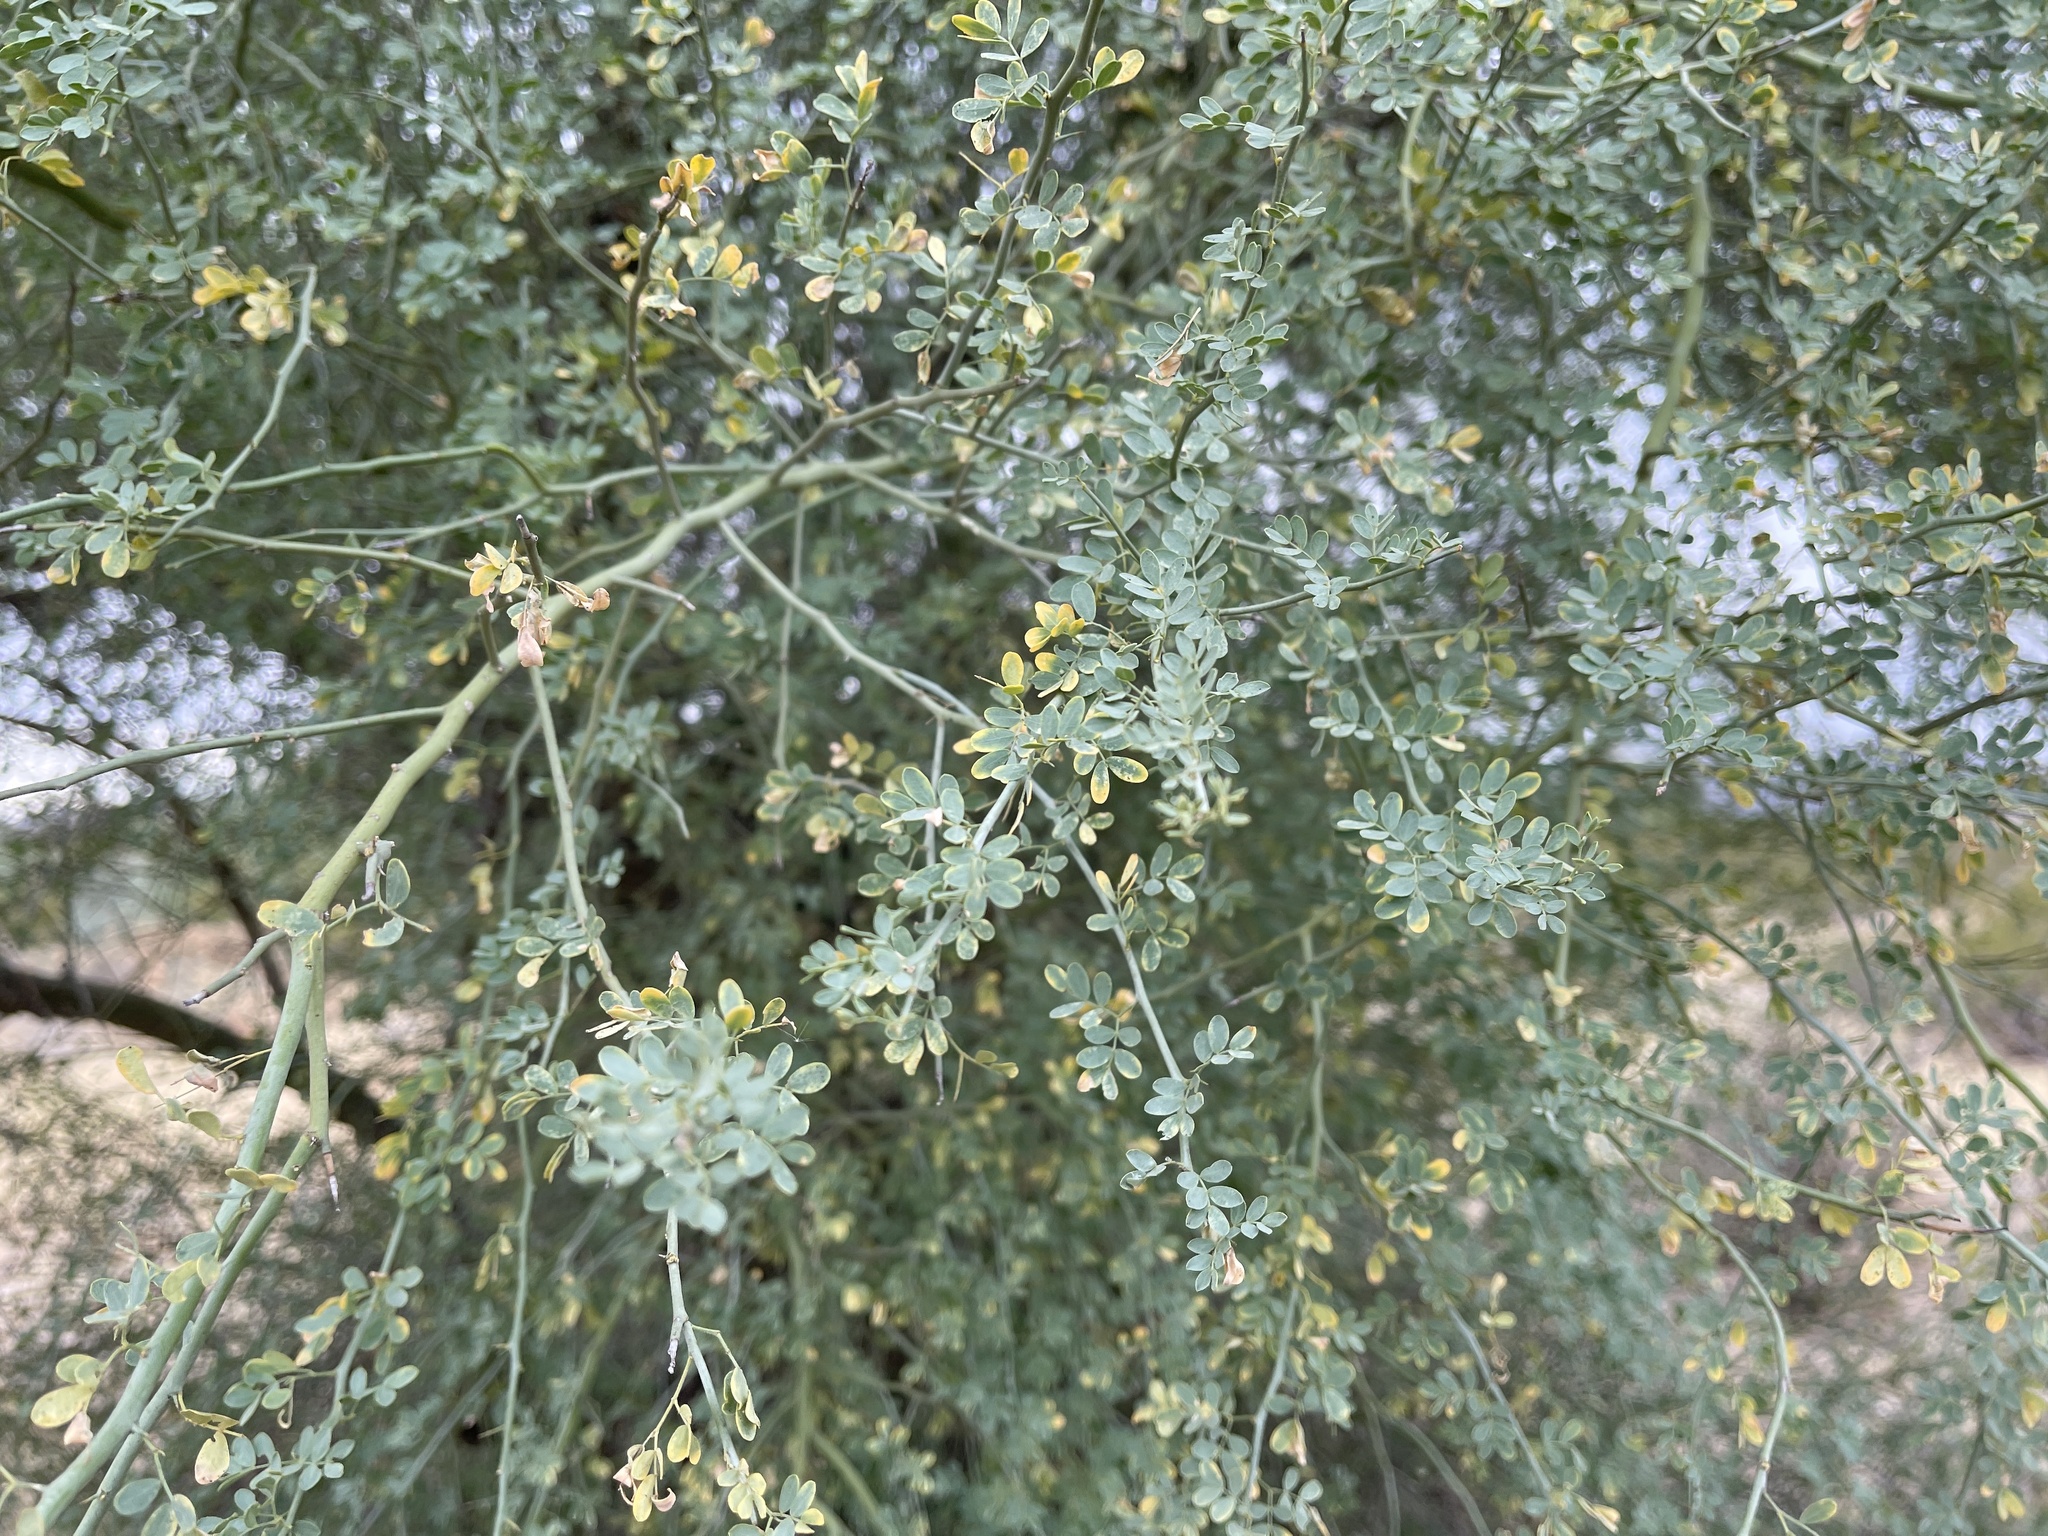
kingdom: Plantae
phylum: Tracheophyta
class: Magnoliopsida
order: Fabales
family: Fabaceae
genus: Parkinsonia
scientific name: Parkinsonia florida
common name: Blue paloverde
